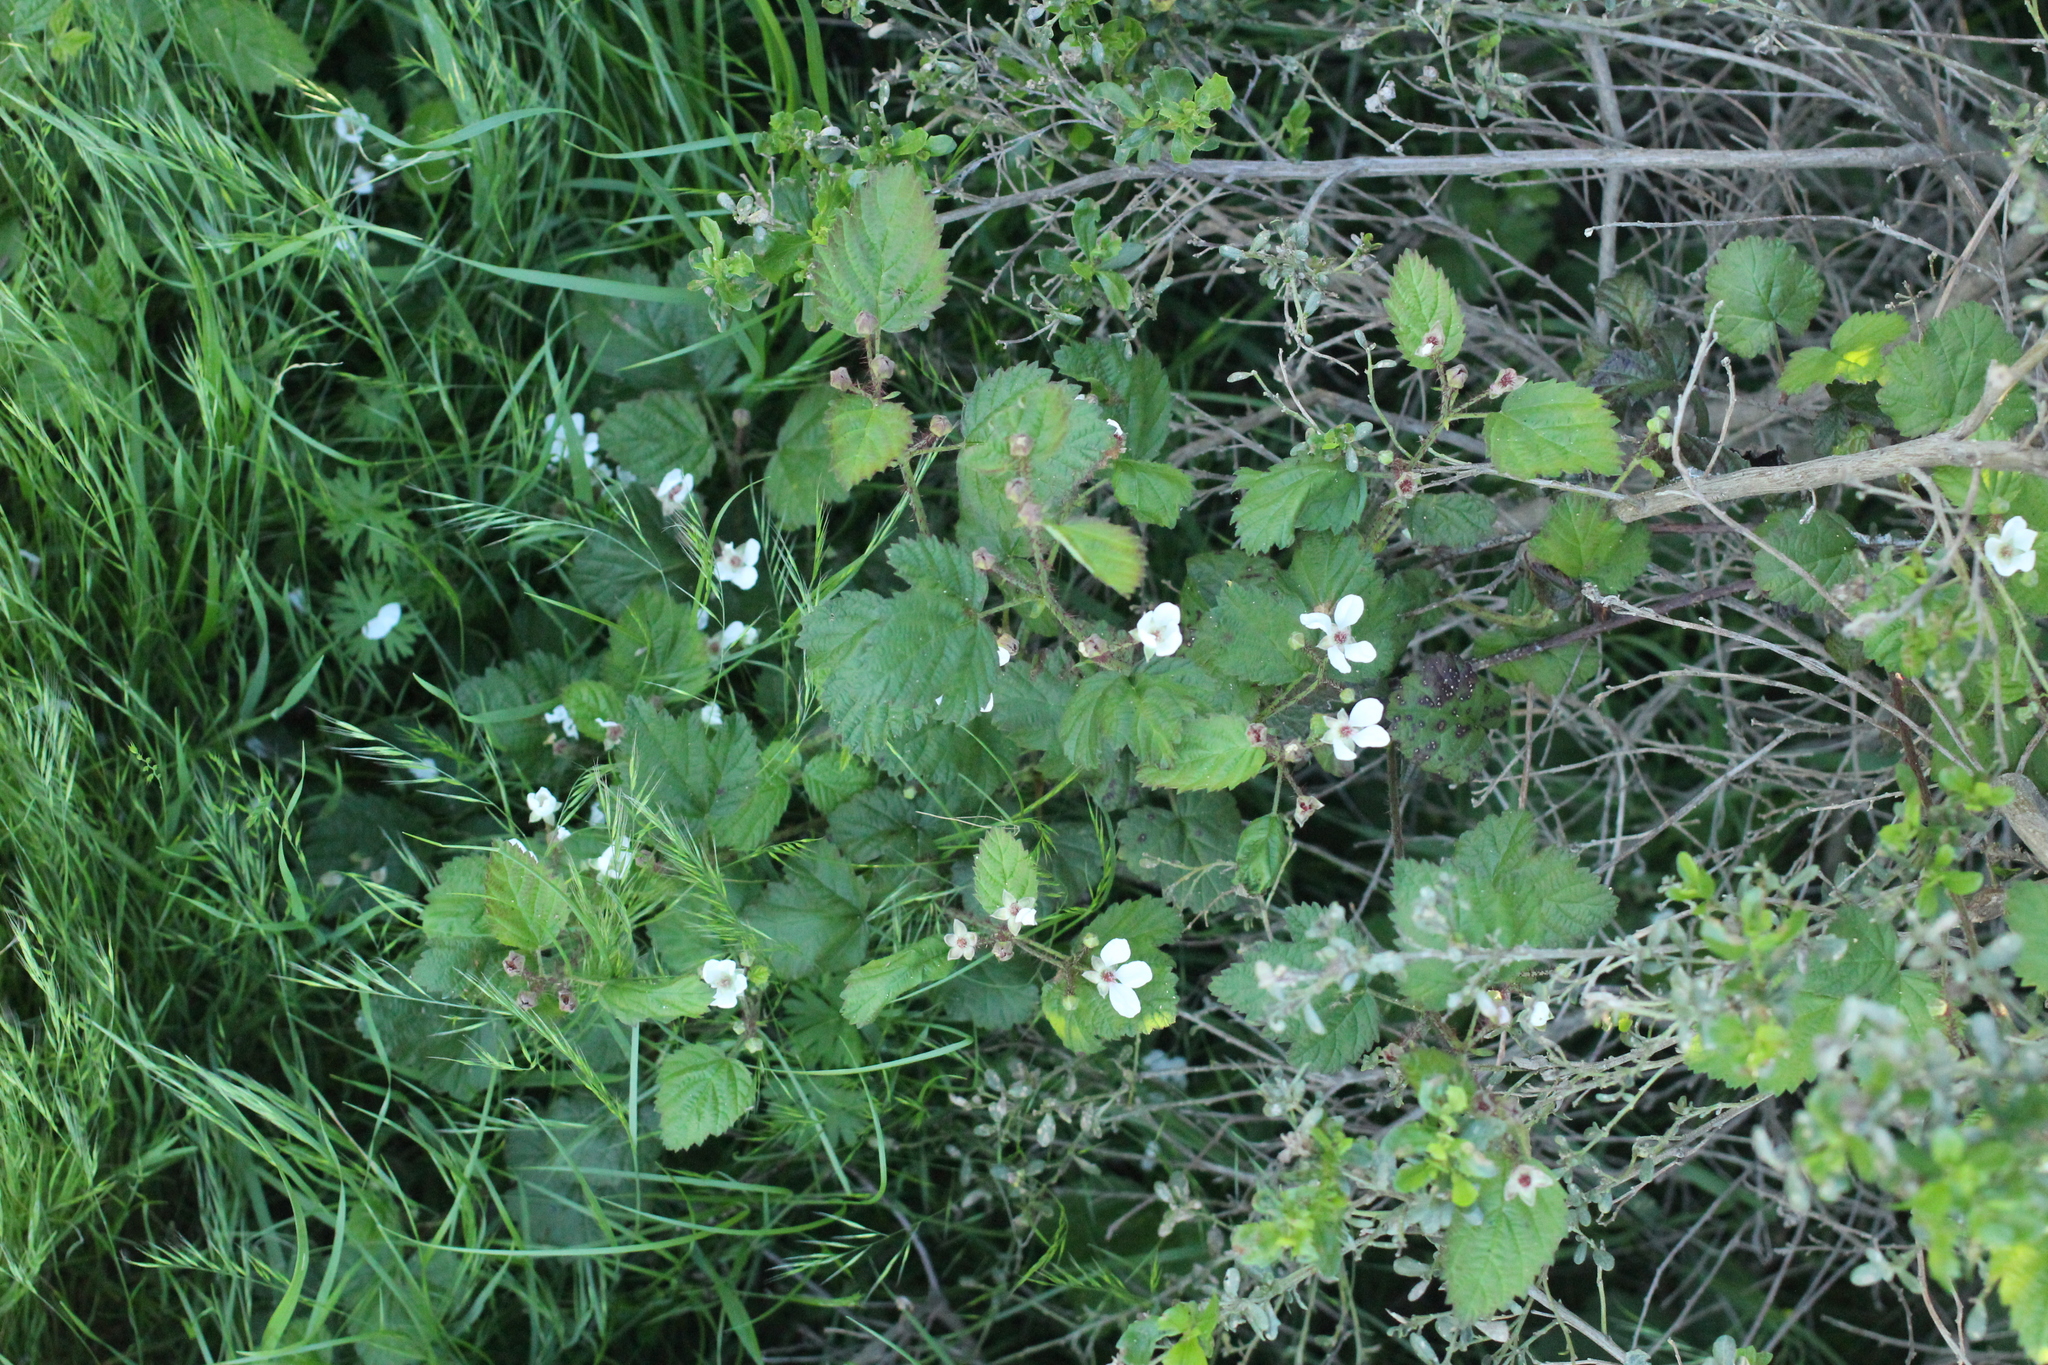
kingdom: Plantae
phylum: Tracheophyta
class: Magnoliopsida
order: Rosales
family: Rosaceae
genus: Rubus
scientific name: Rubus ursinus
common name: Pacific blackberry
